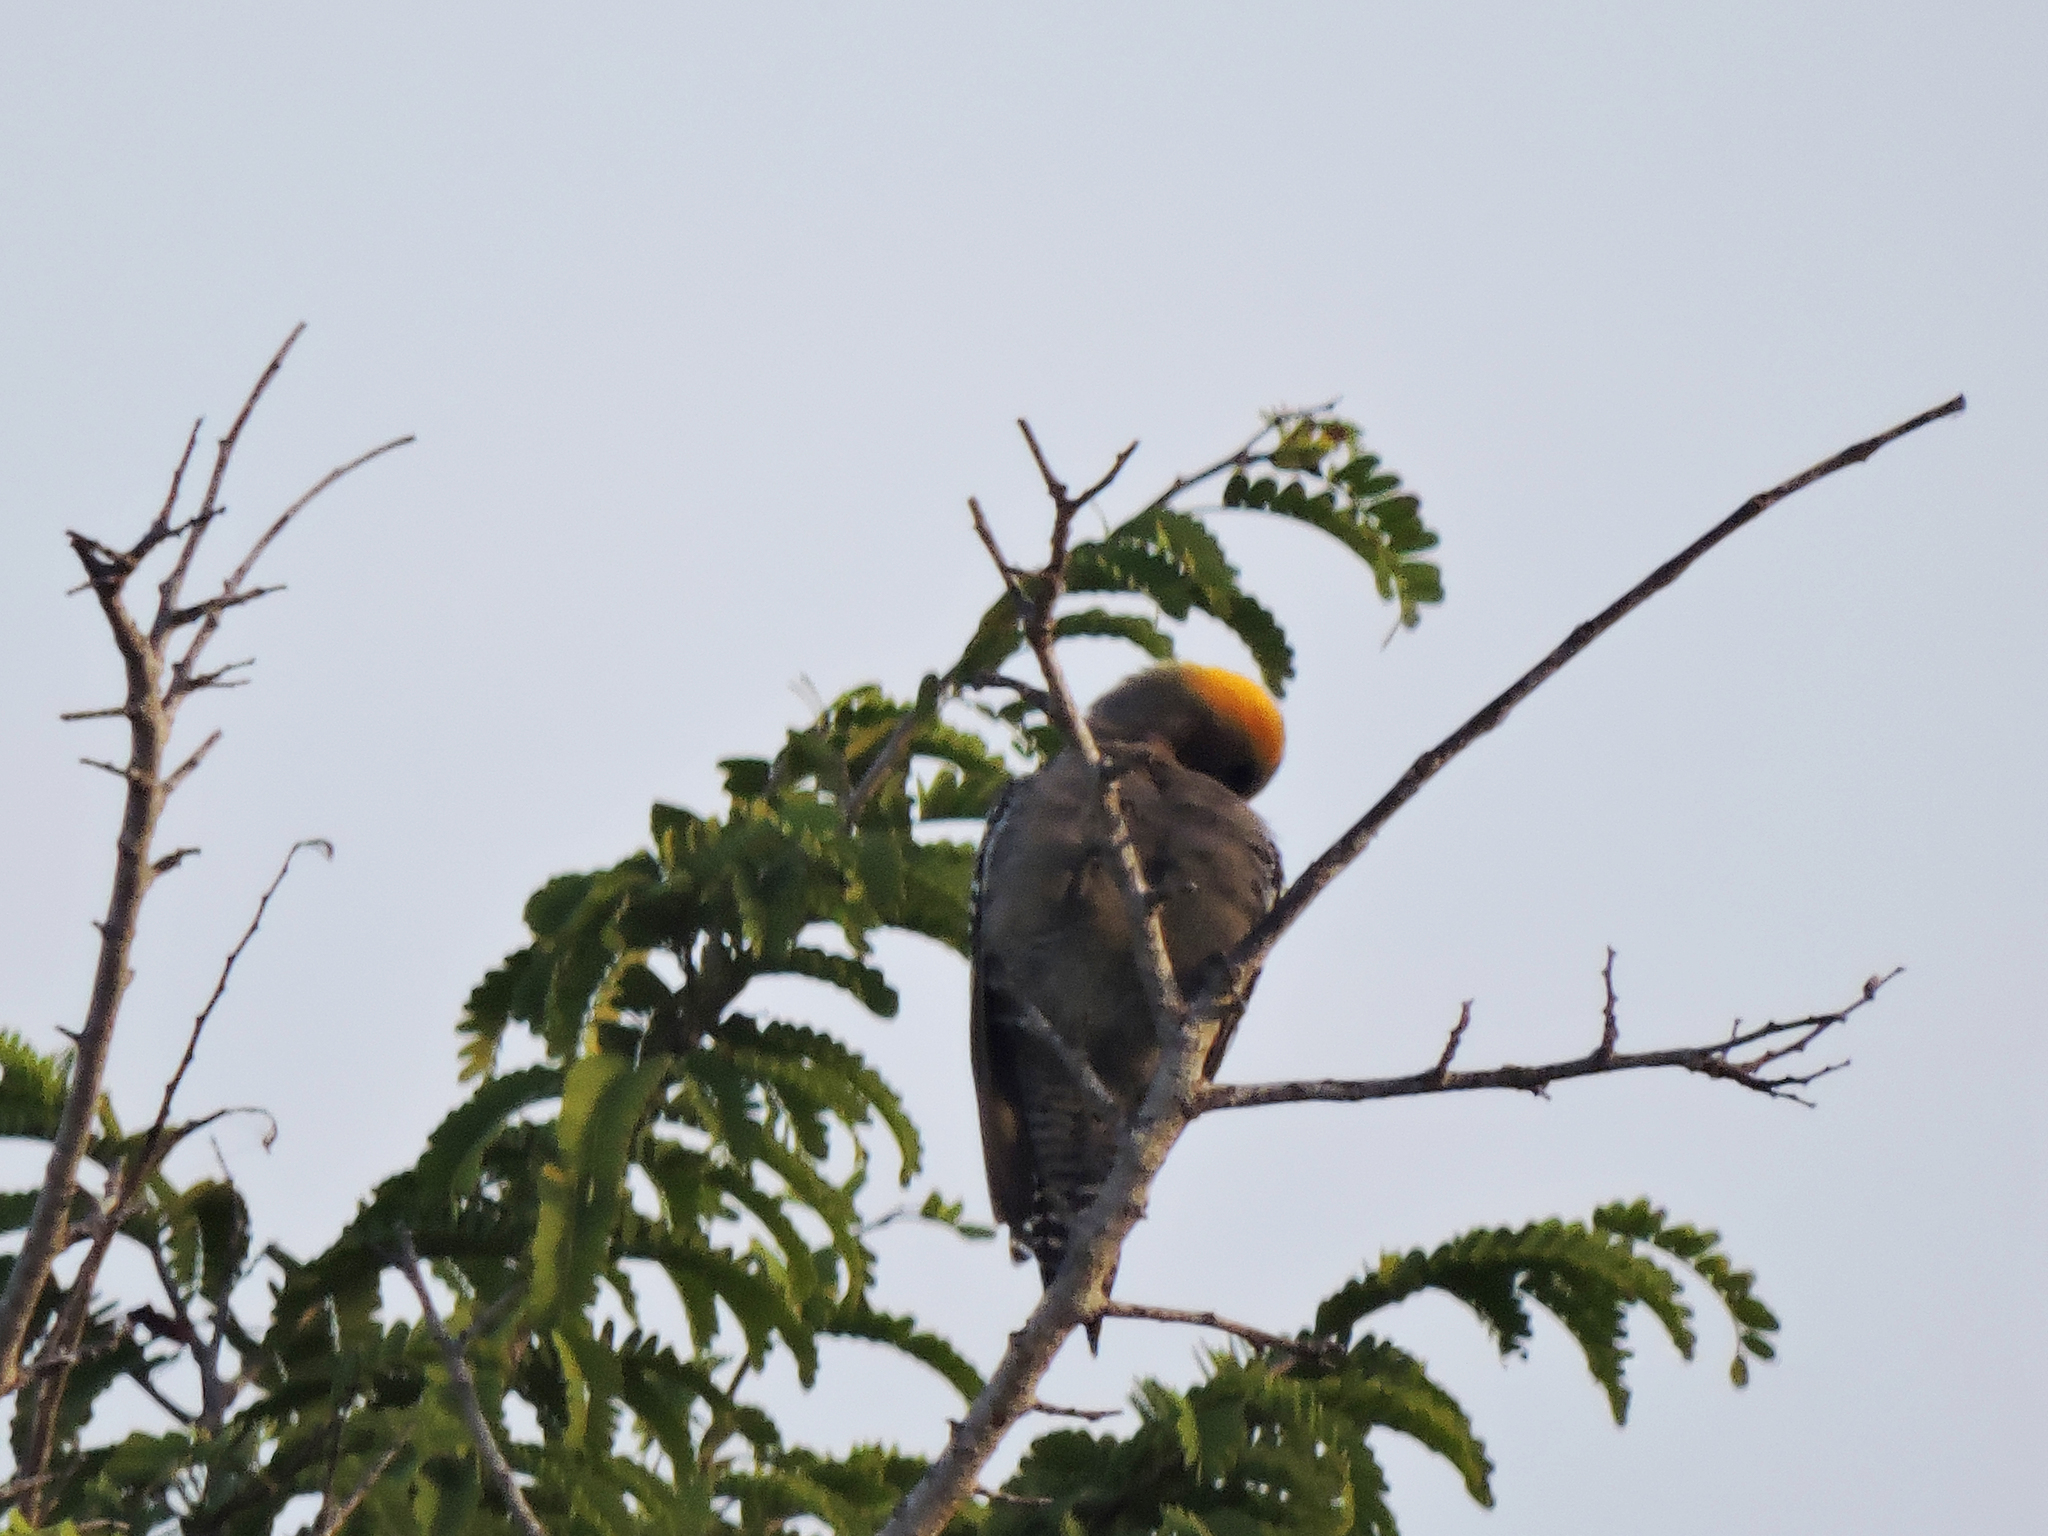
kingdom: Animalia
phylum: Chordata
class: Aves
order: Piciformes
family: Picidae
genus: Melanerpes
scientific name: Melanerpes chrysogenys
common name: Golden-cheeked woodpecker
